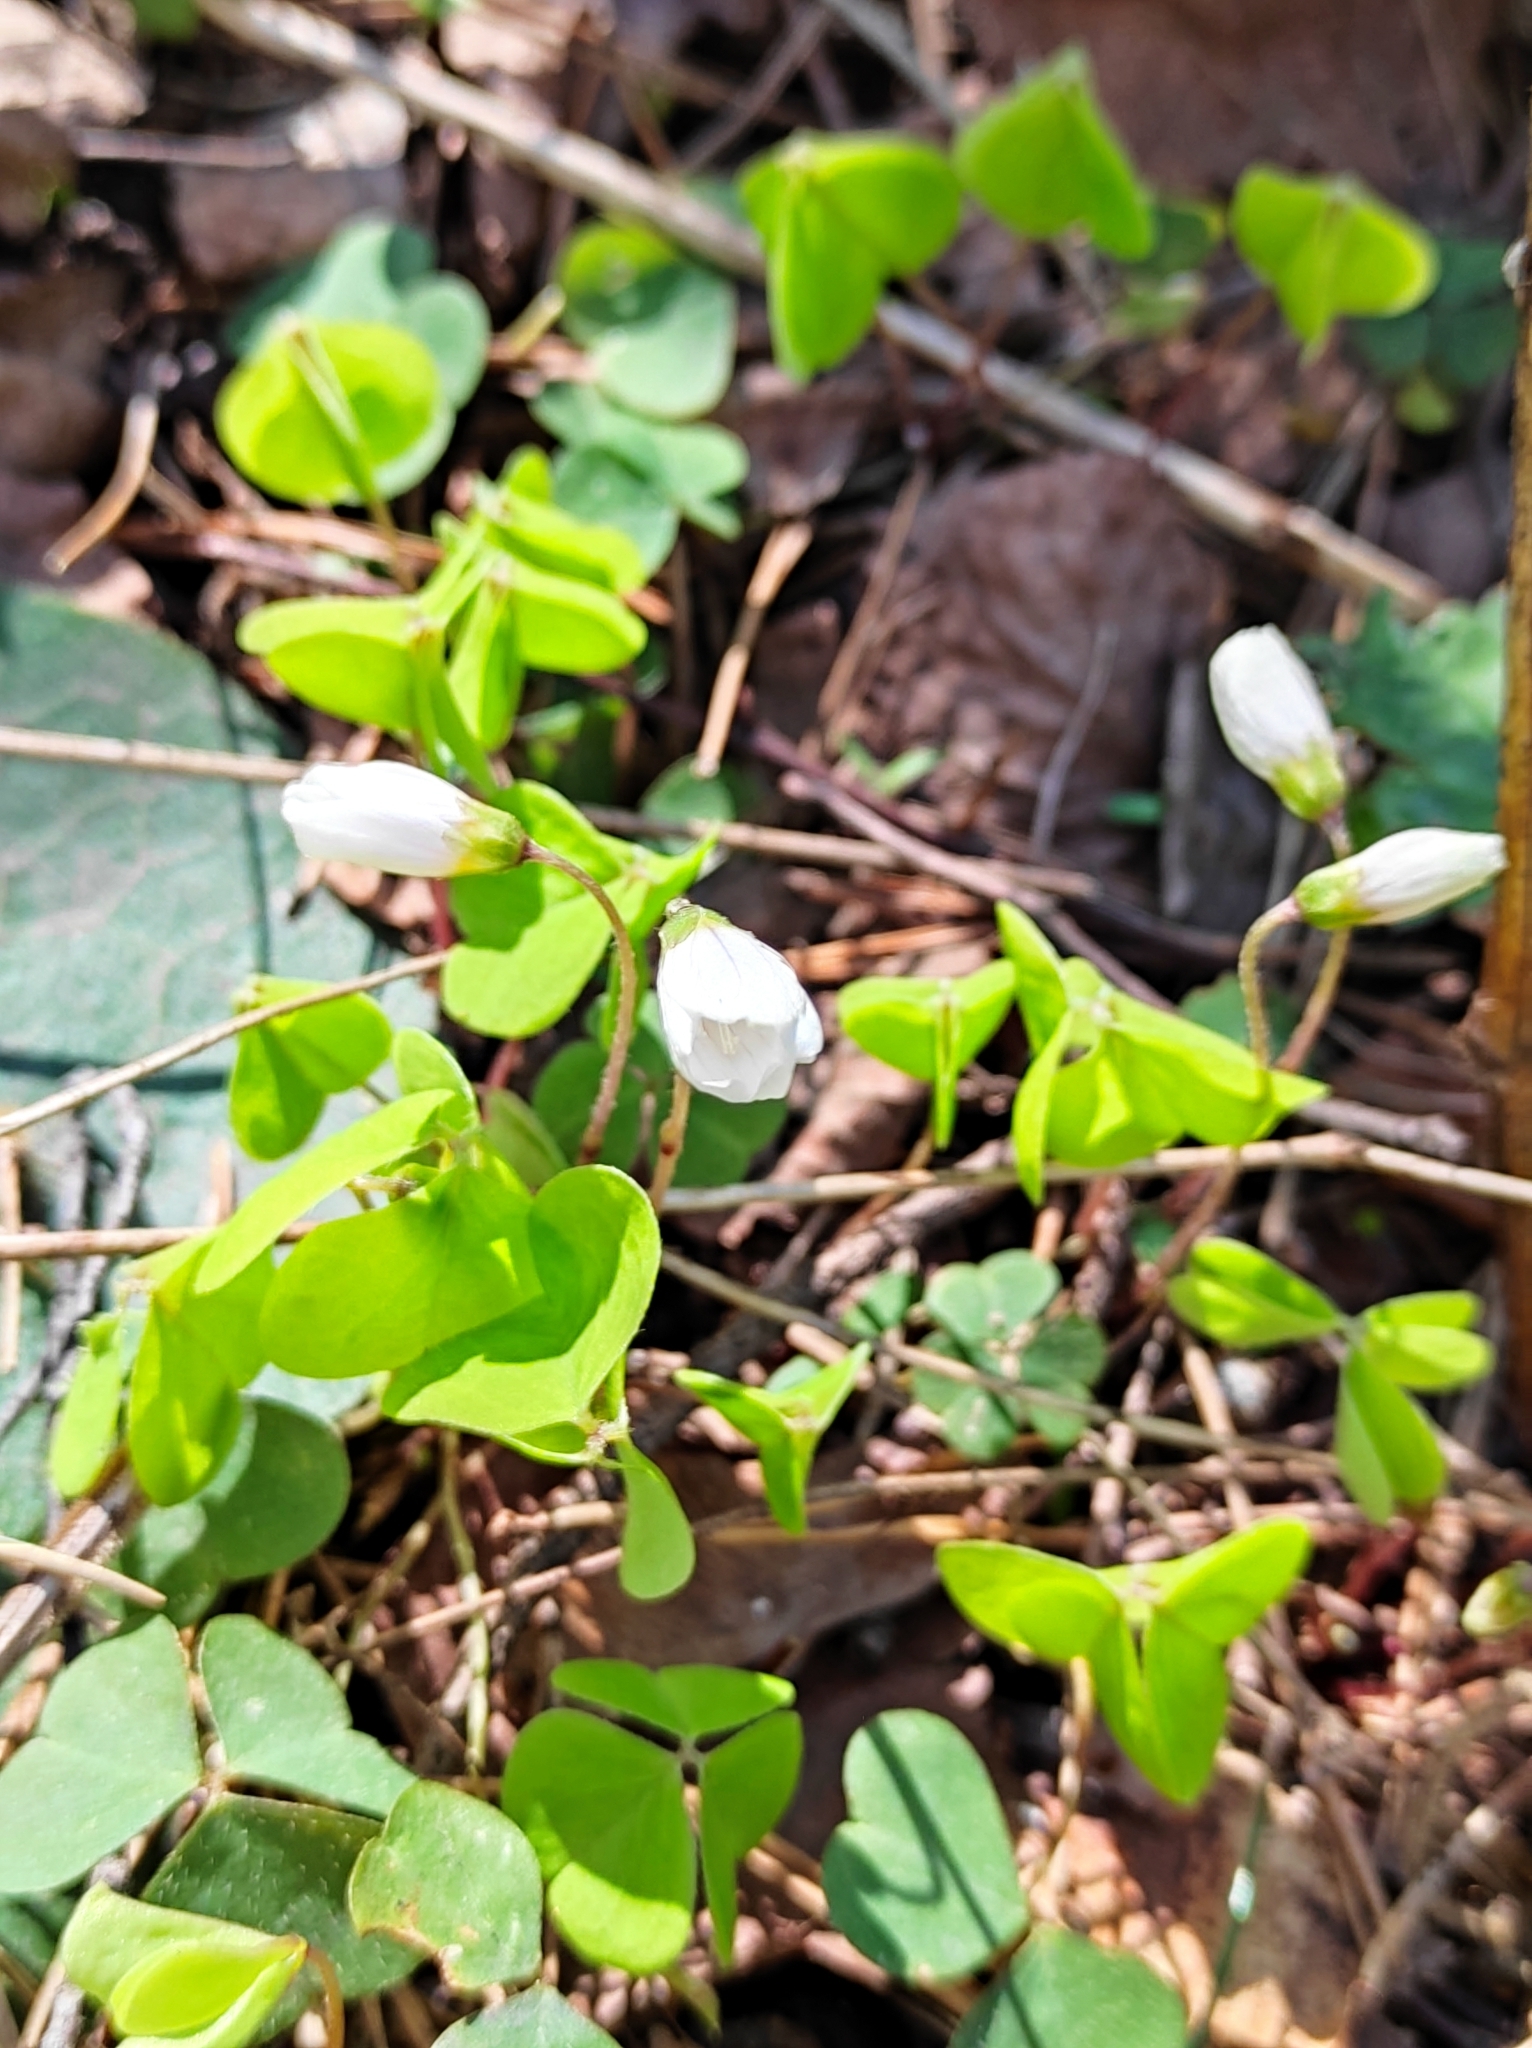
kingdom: Plantae
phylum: Tracheophyta
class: Magnoliopsida
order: Oxalidales
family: Oxalidaceae
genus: Oxalis
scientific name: Oxalis acetosella
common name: Wood-sorrel
